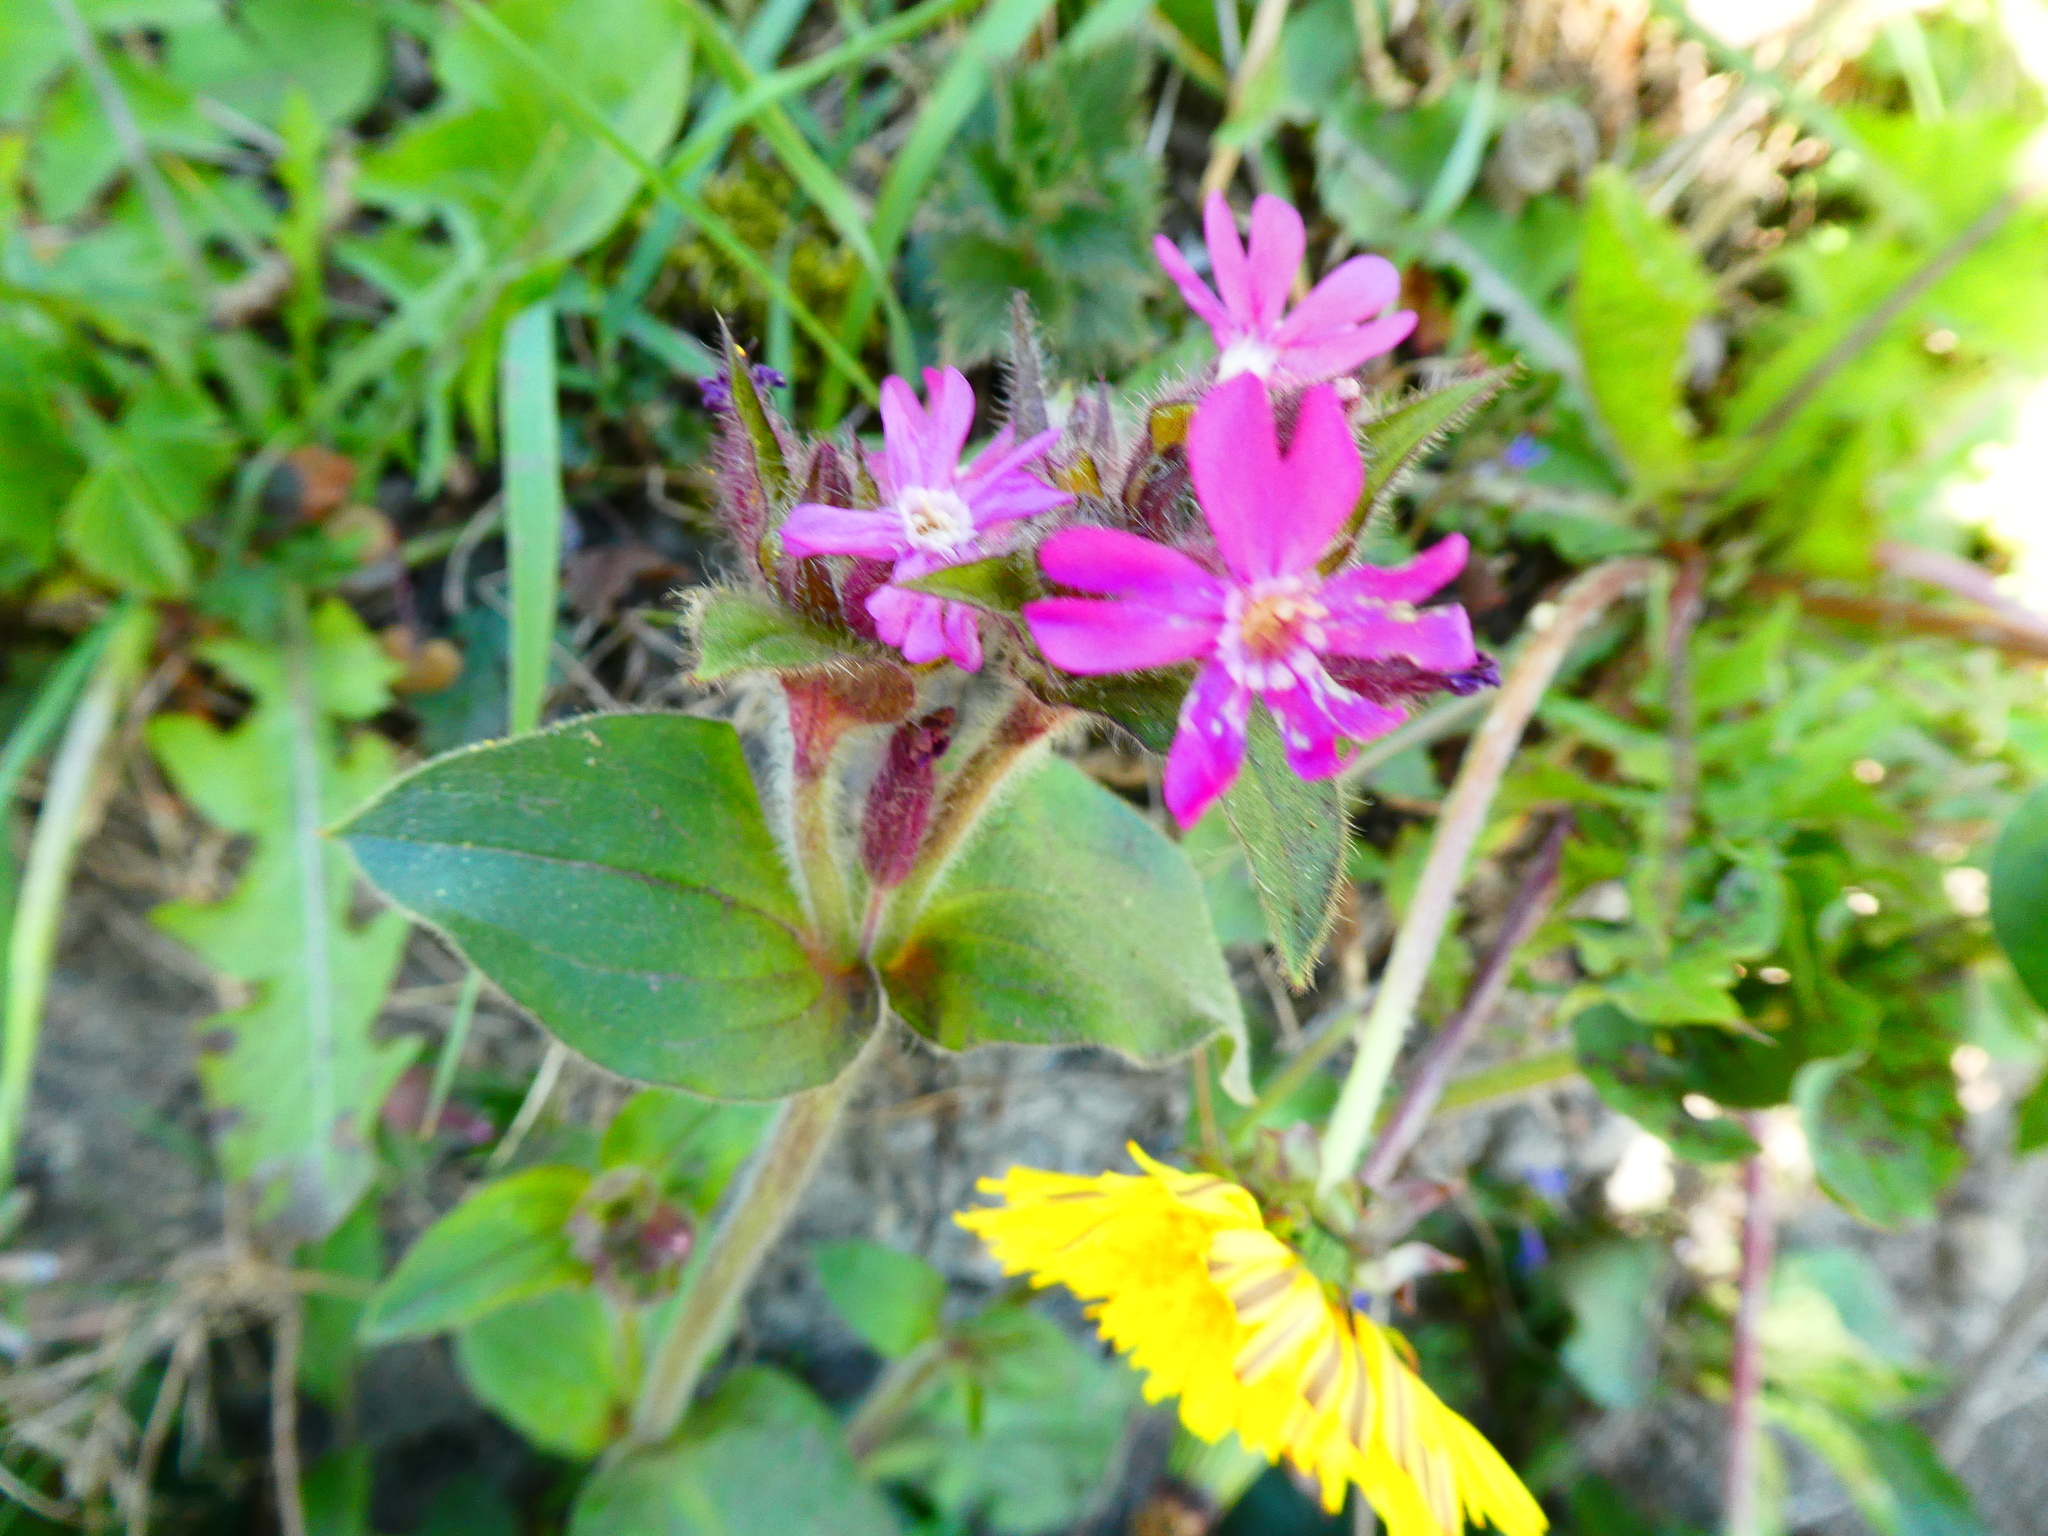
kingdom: Plantae
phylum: Tracheophyta
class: Magnoliopsida
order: Caryophyllales
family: Caryophyllaceae
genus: Silene
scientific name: Silene dioica
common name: Red campion
